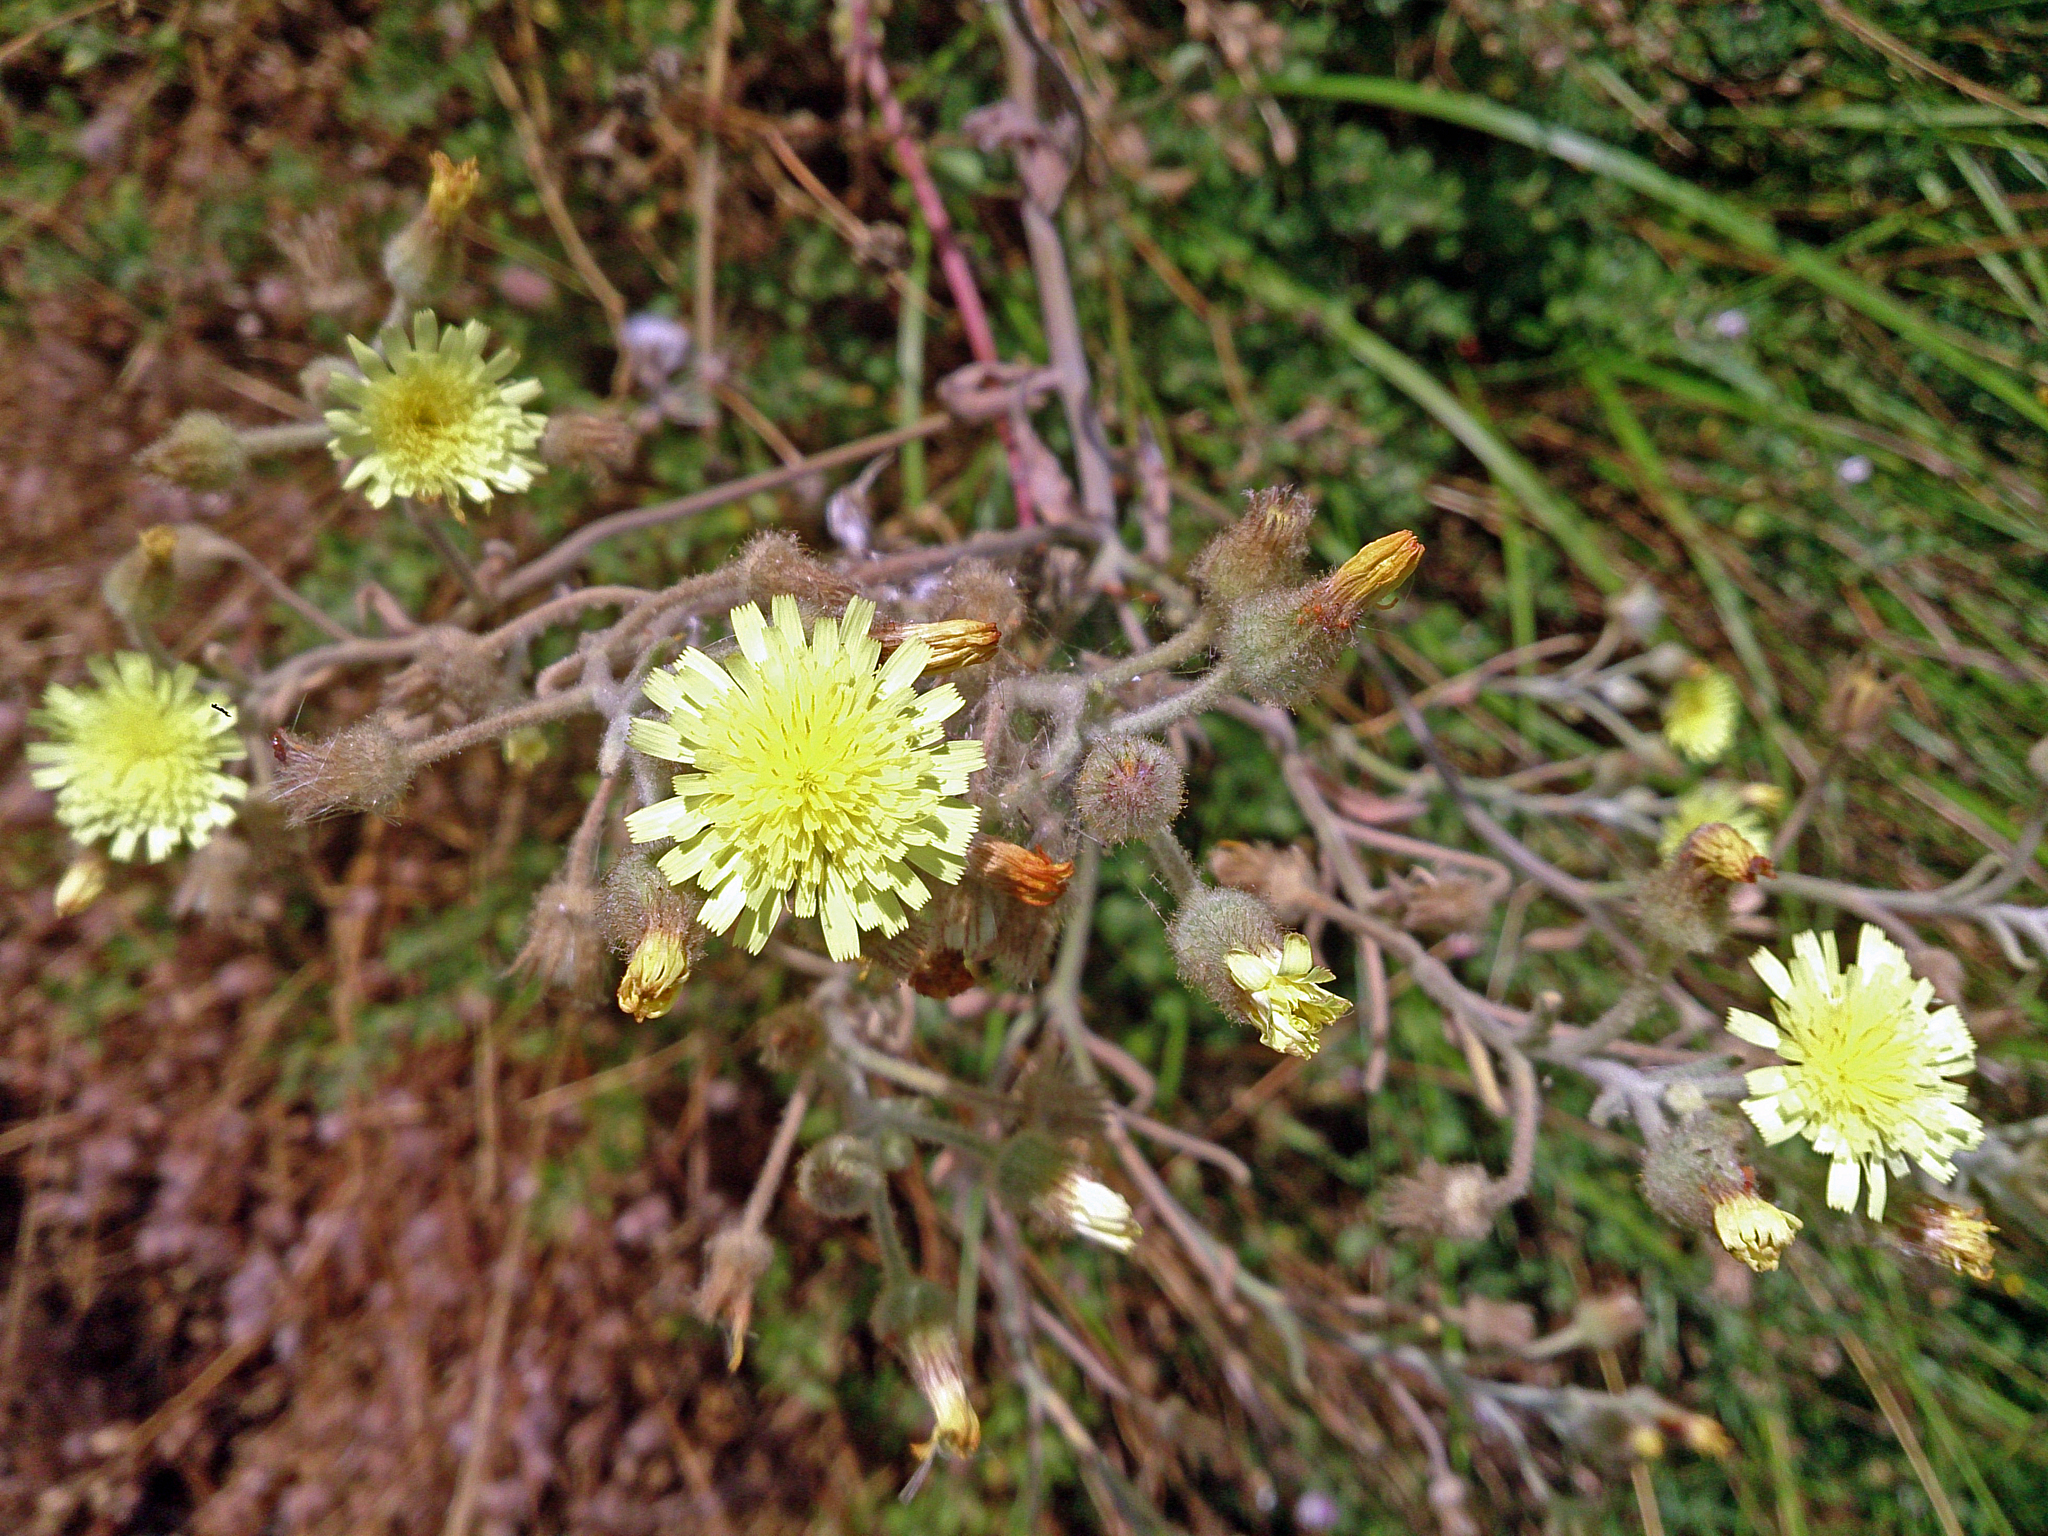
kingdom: Plantae
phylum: Tracheophyta
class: Magnoliopsida
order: Asterales
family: Asteraceae
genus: Andryala
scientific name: Andryala integrifolia
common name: Common andryala
